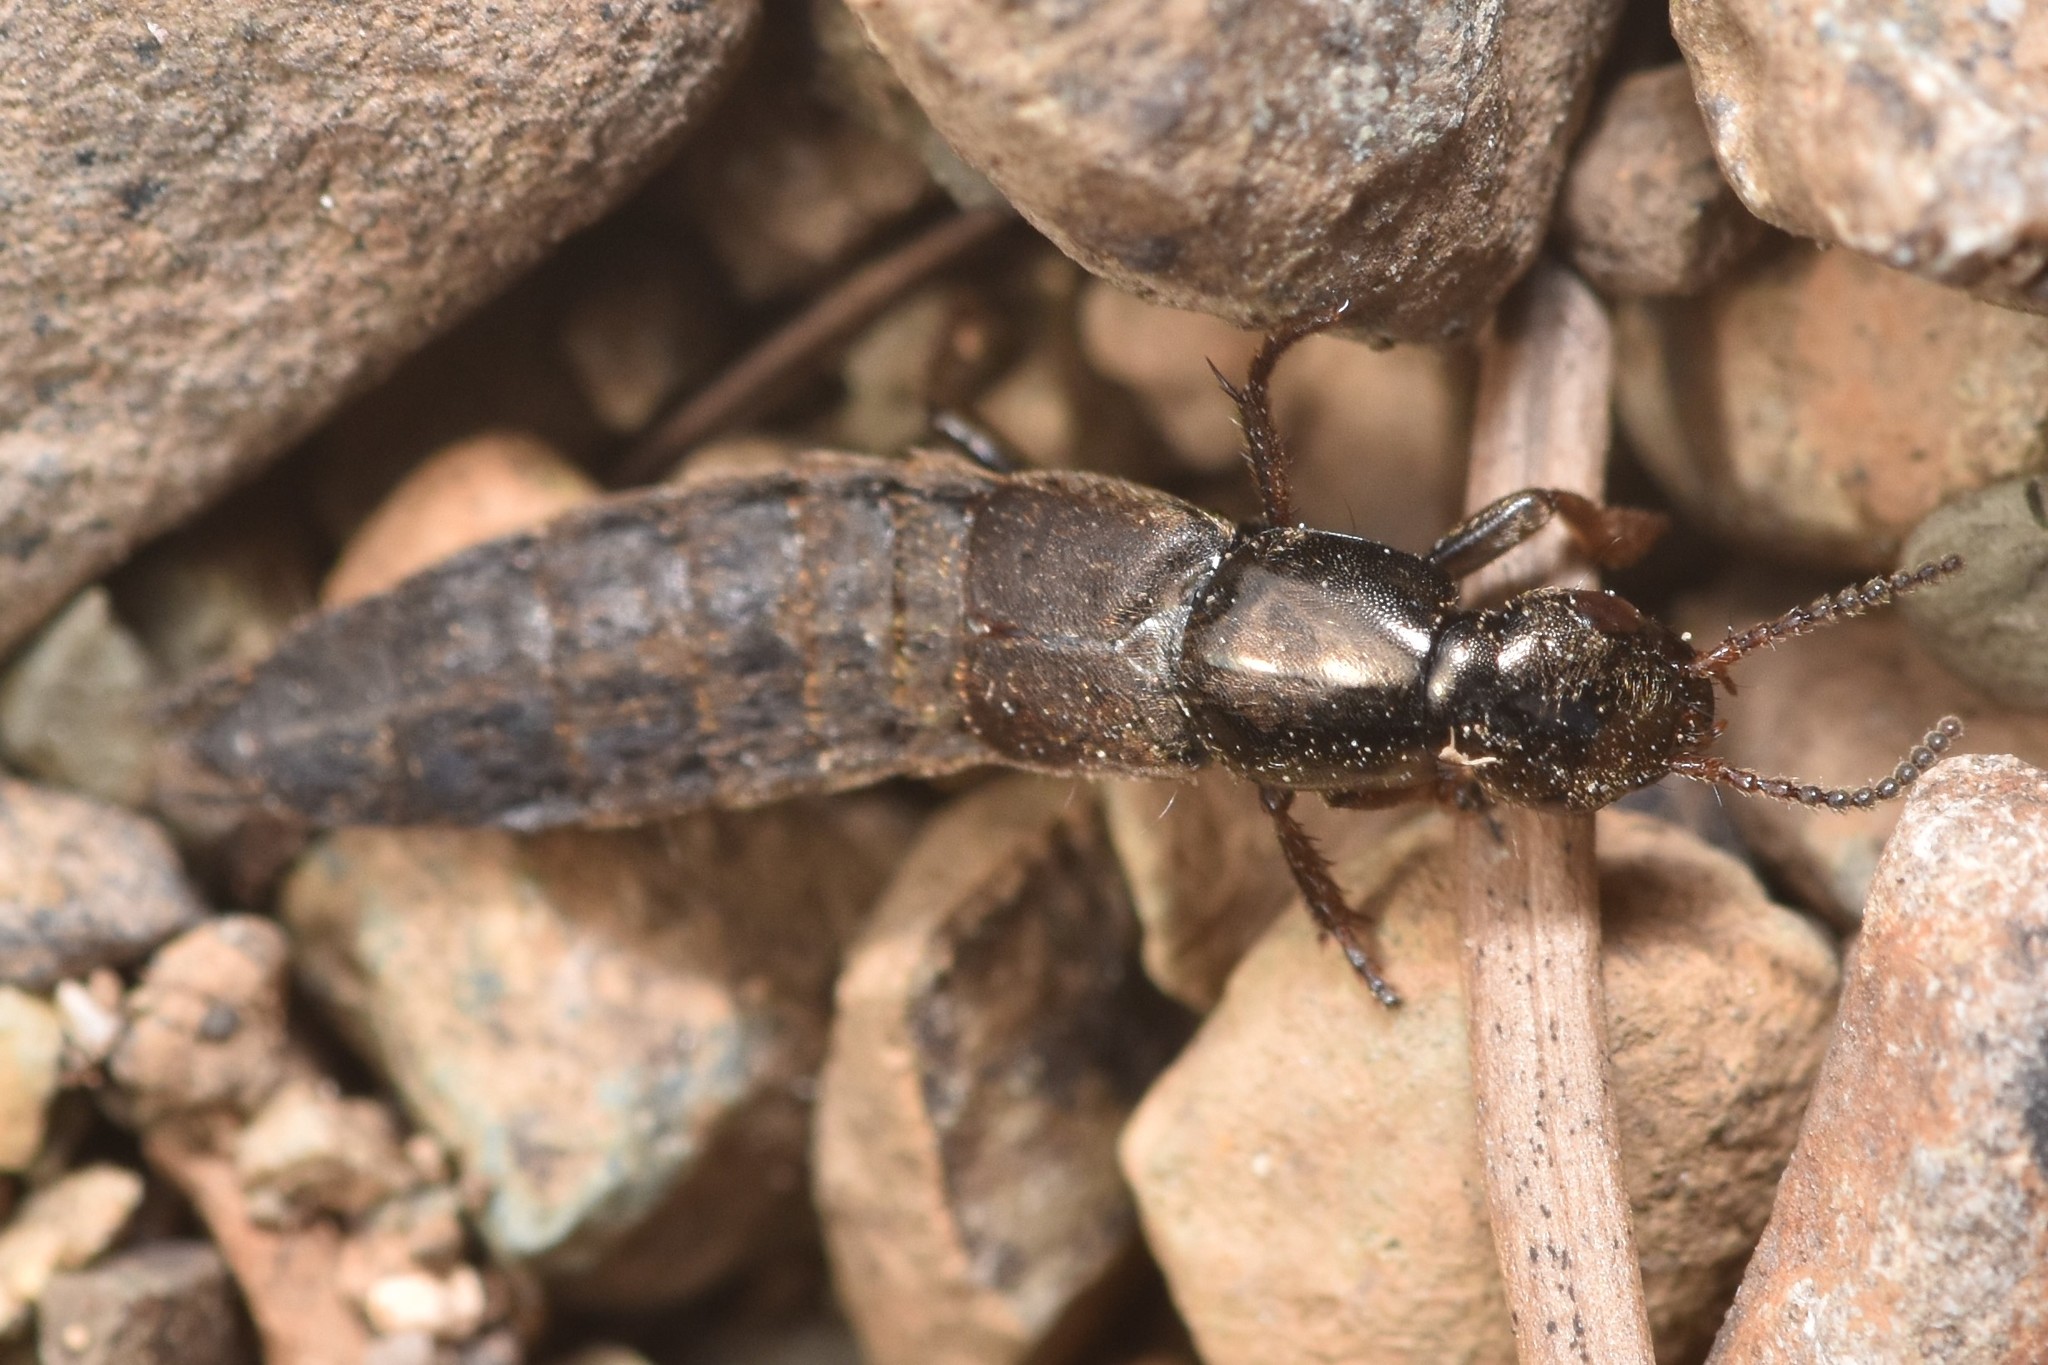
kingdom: Animalia
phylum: Arthropoda
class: Insecta
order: Coleoptera
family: Staphylinidae
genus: Ocypus
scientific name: Ocypus aeneocephalus
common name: Staph beetle
